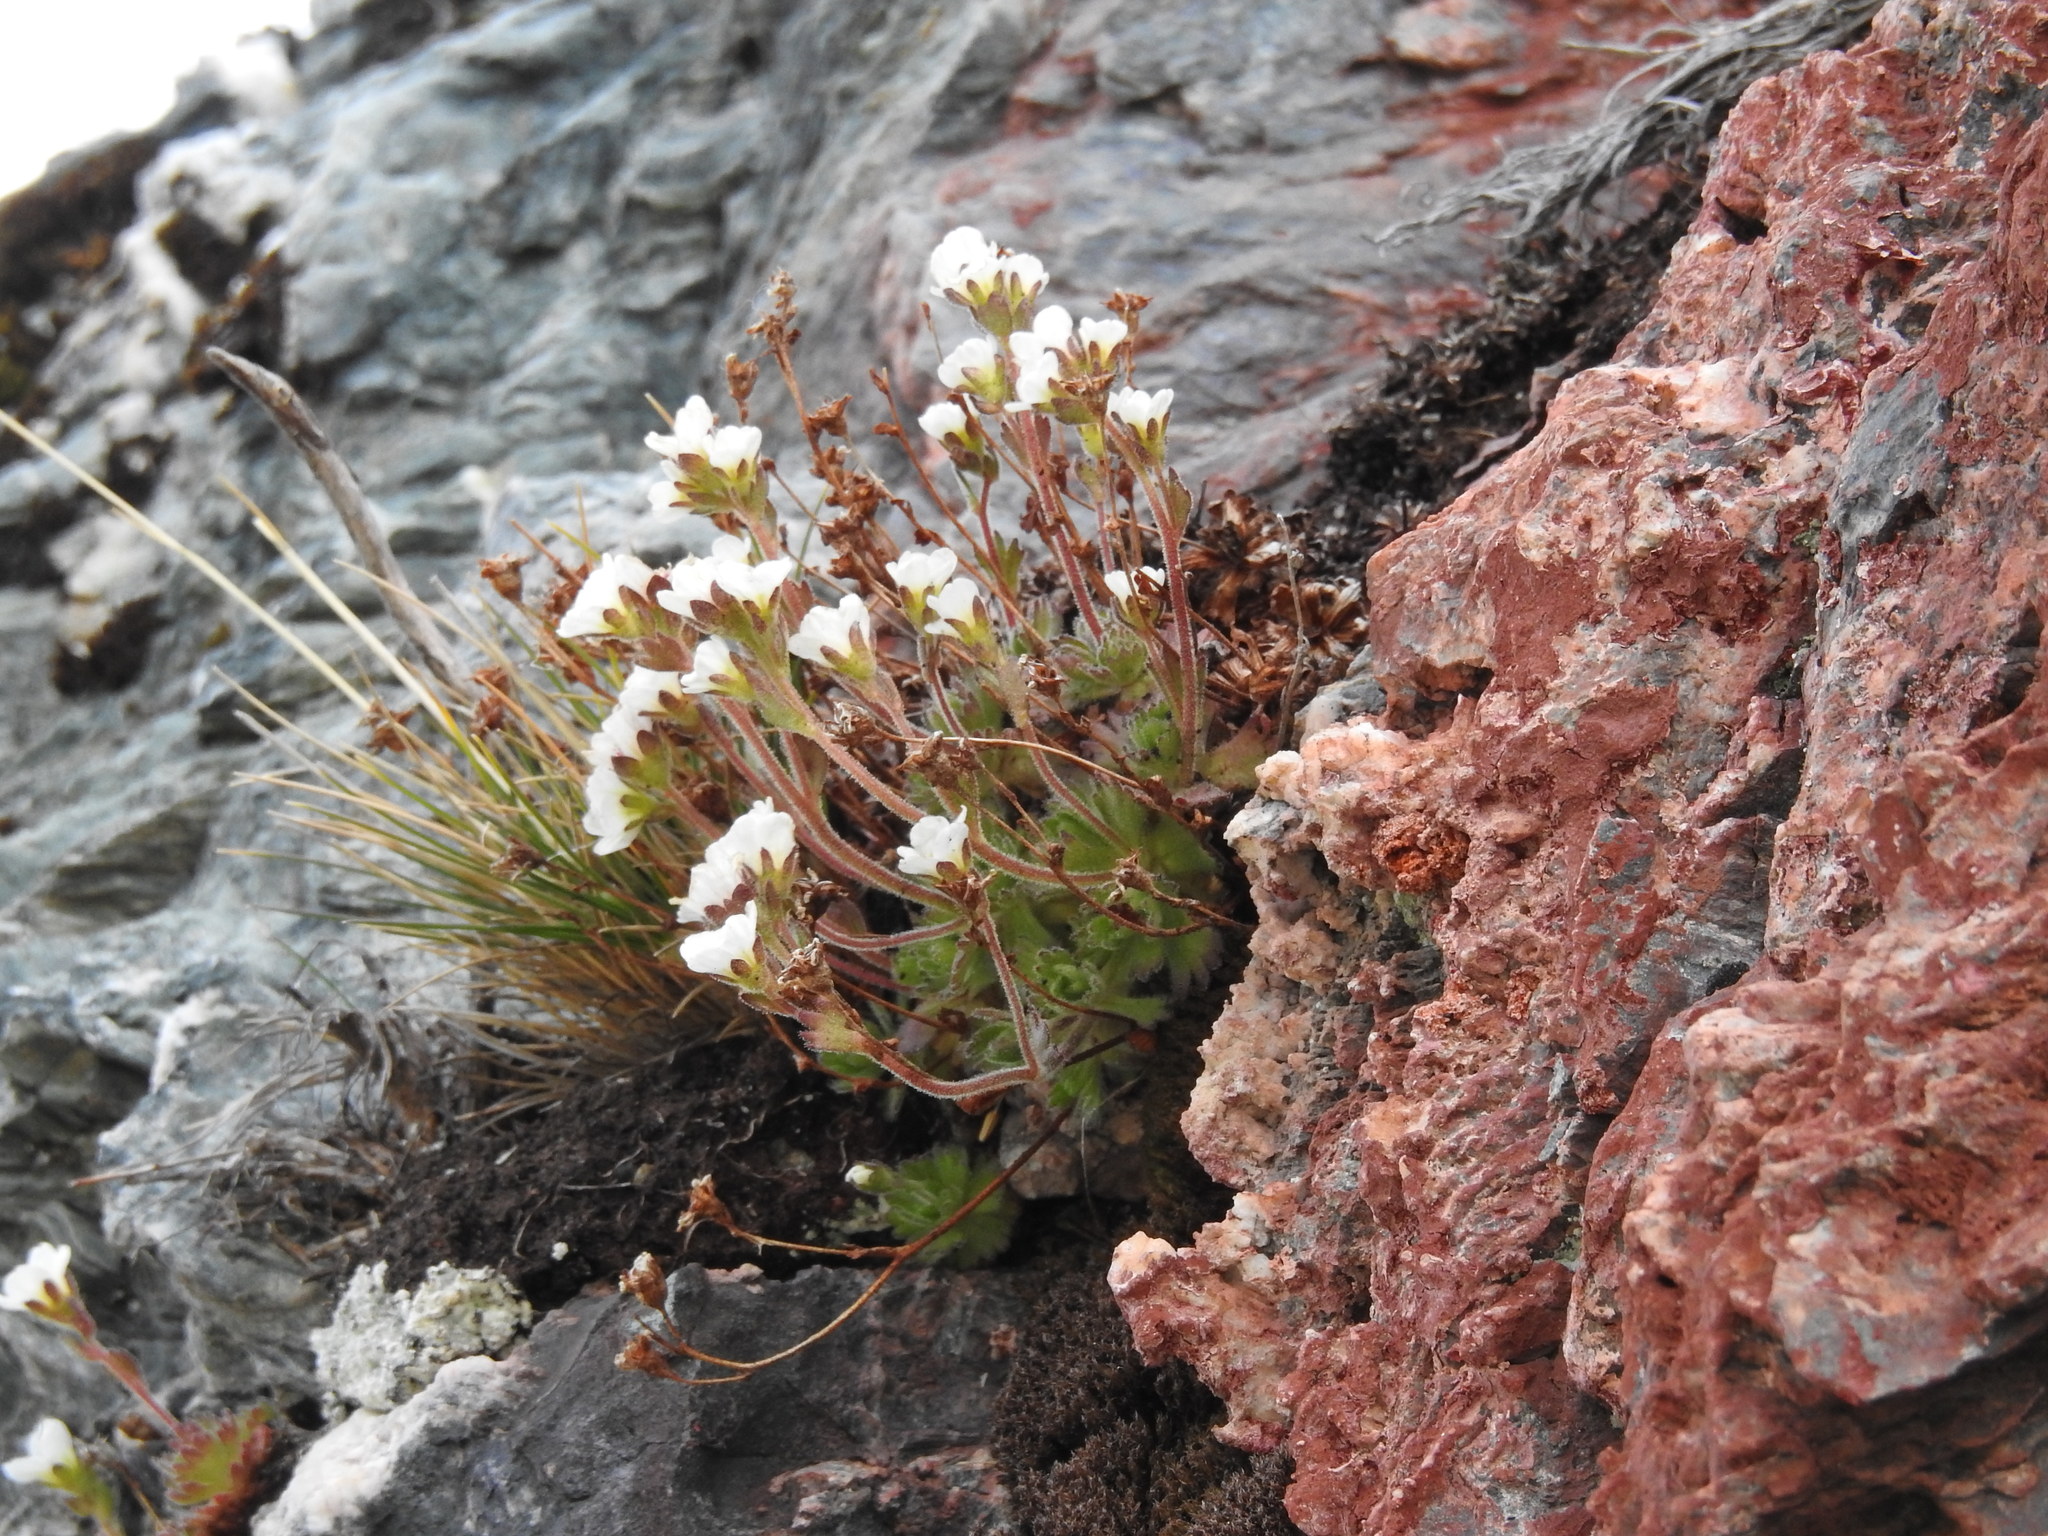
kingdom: Plantae
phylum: Tracheophyta
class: Magnoliopsida
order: Saxifragales
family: Saxifragaceae
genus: Saxifraga
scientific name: Saxifraga magellanica
